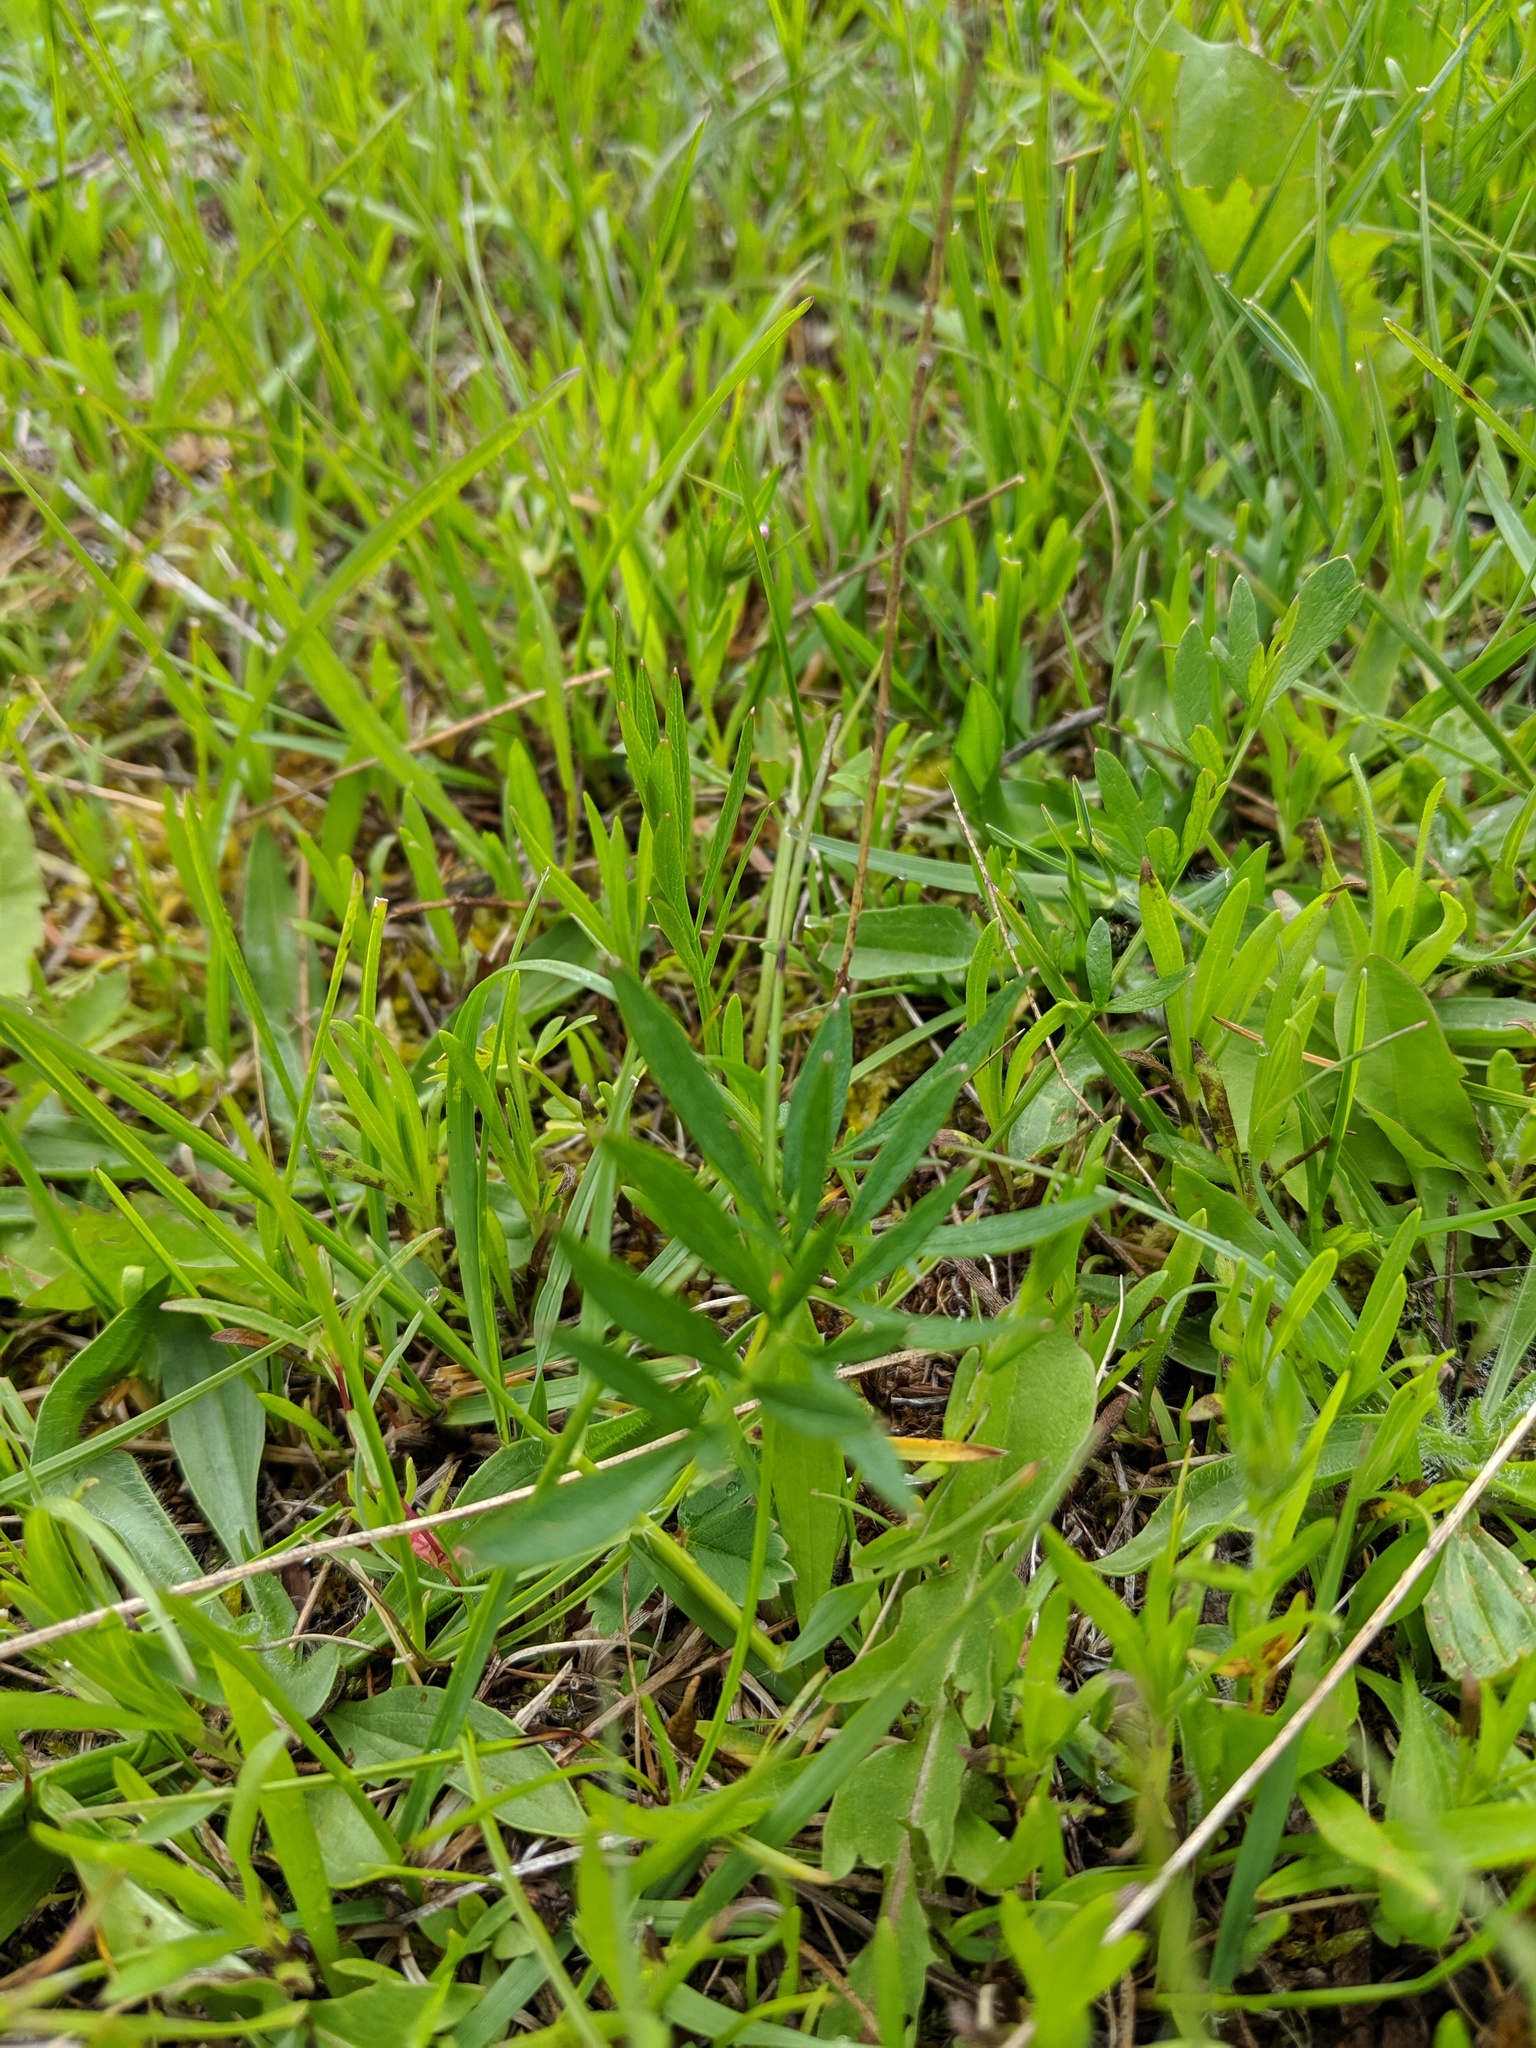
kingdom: Plantae
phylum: Tracheophyta
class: Magnoliopsida
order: Apiales
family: Apiaceae
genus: Perideridia
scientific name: Perideridia gairdneri
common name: False caraway
